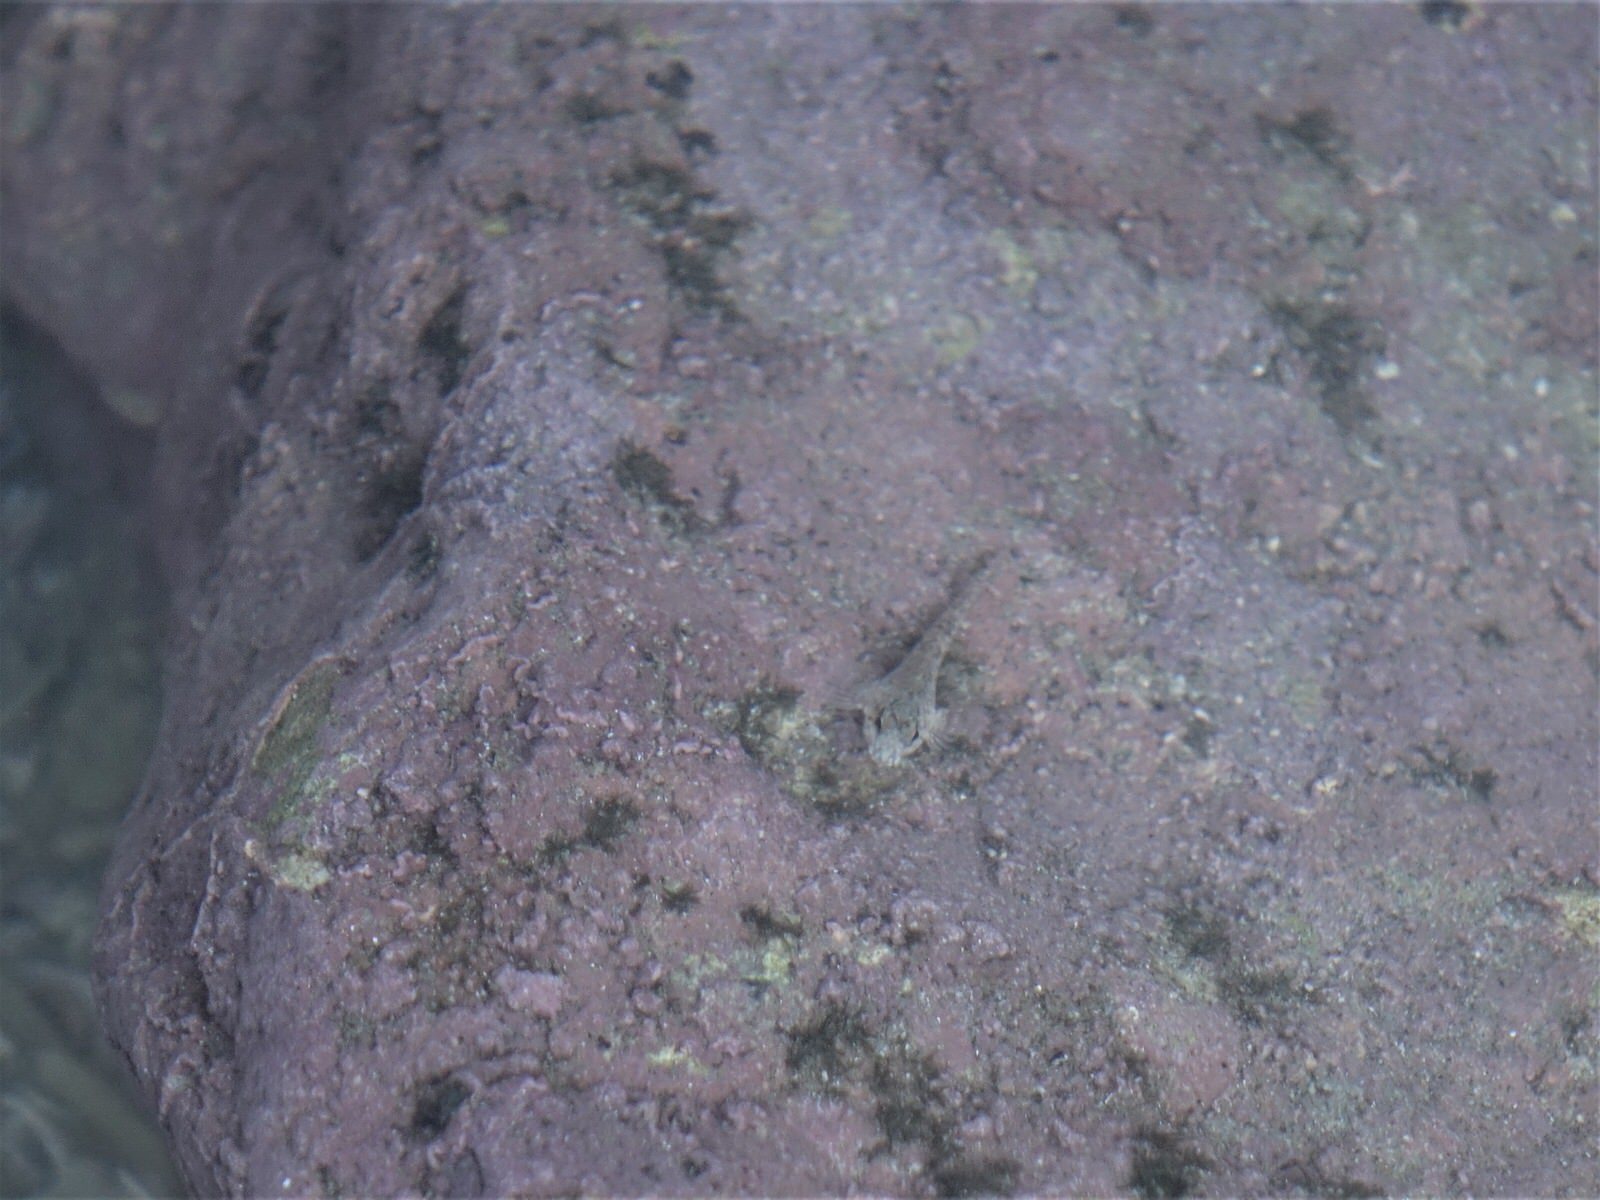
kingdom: Animalia
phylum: Chordata
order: Perciformes
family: Tripterygiidae
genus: Bellapiscis
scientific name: Bellapiscis medius
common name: Twister
